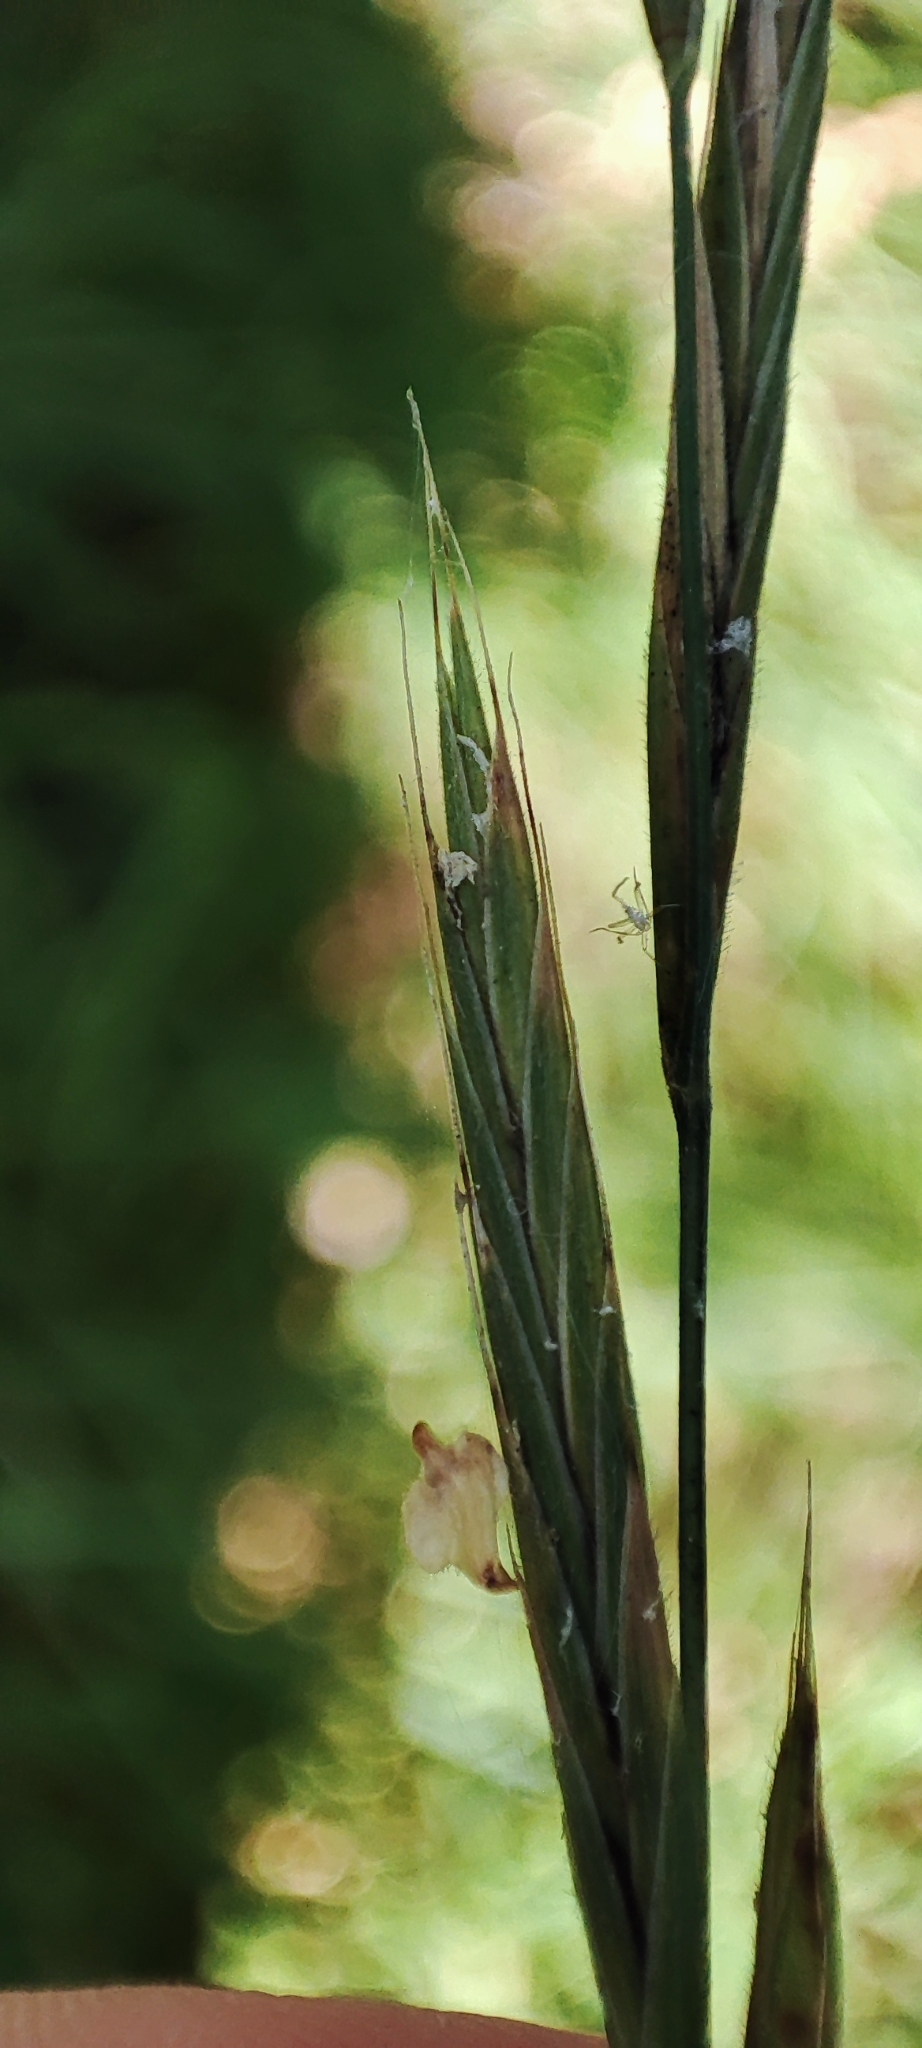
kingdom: Plantae
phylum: Tracheophyta
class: Liliopsida
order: Poales
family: Poaceae
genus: Brachypodium
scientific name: Brachypodium pinnatum
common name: Tor grass
